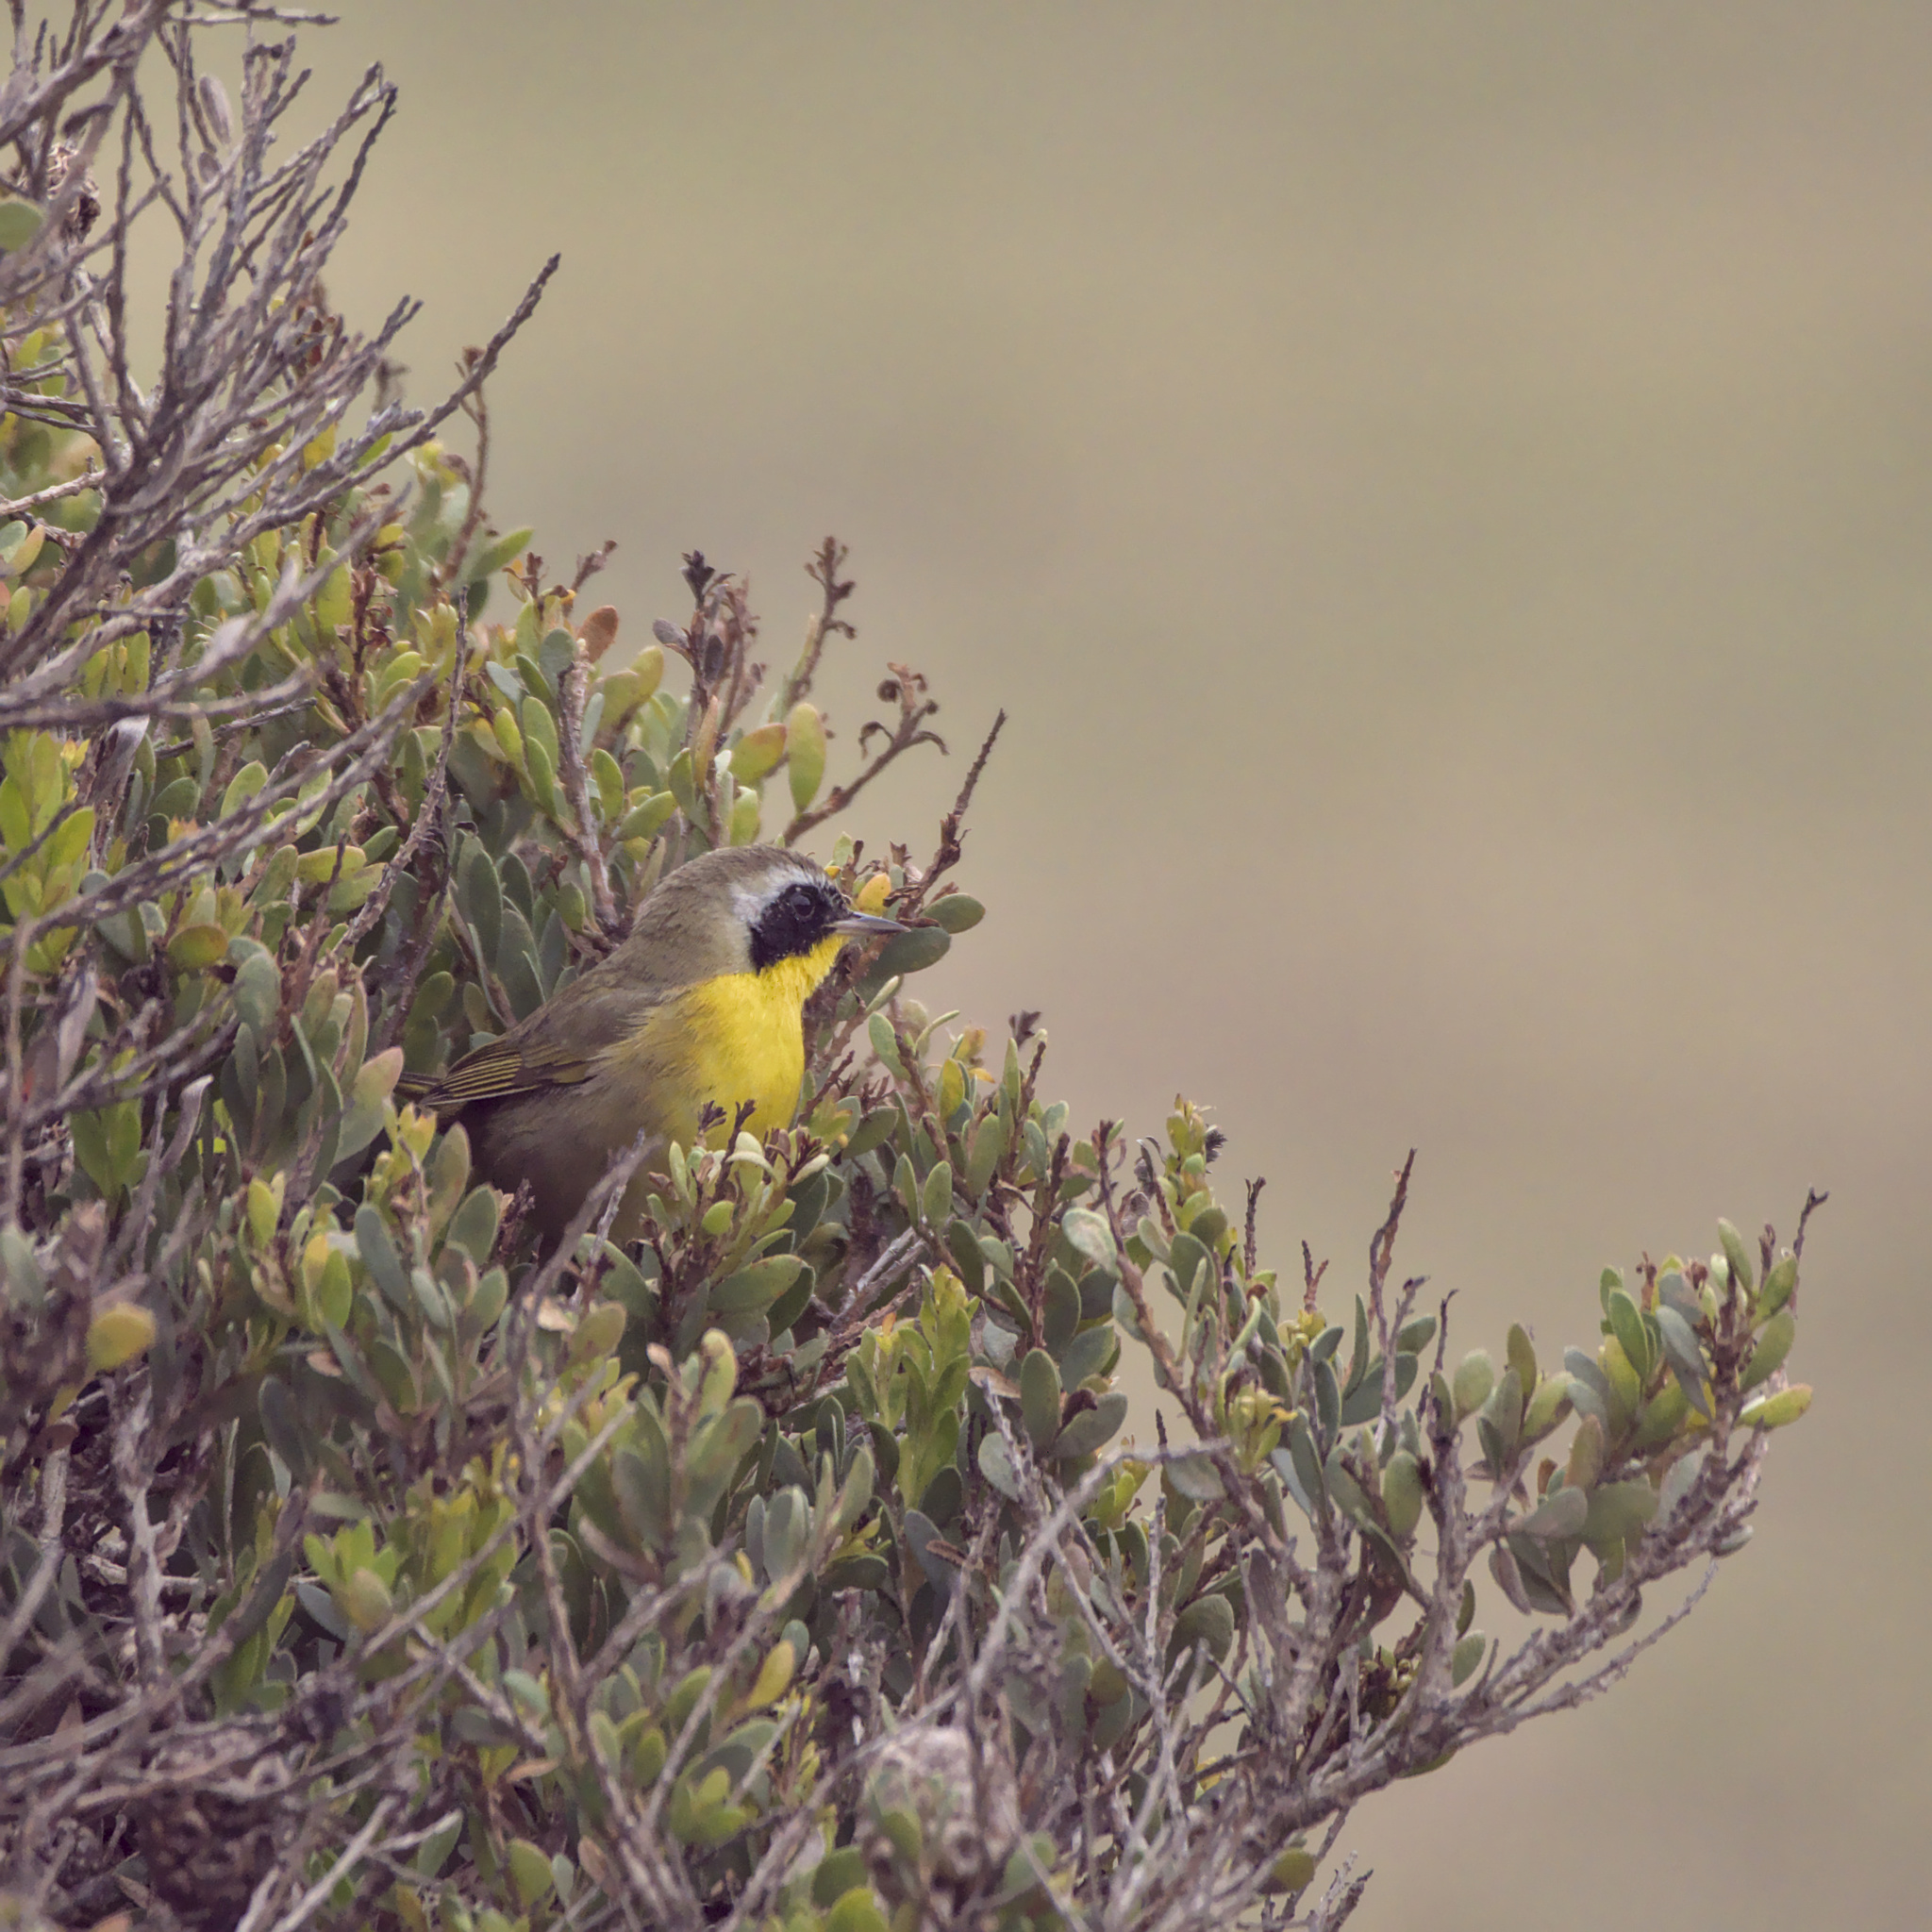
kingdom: Animalia
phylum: Chordata
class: Aves
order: Passeriformes
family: Parulidae
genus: Geothlypis
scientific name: Geothlypis trichas
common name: Common yellowthroat
